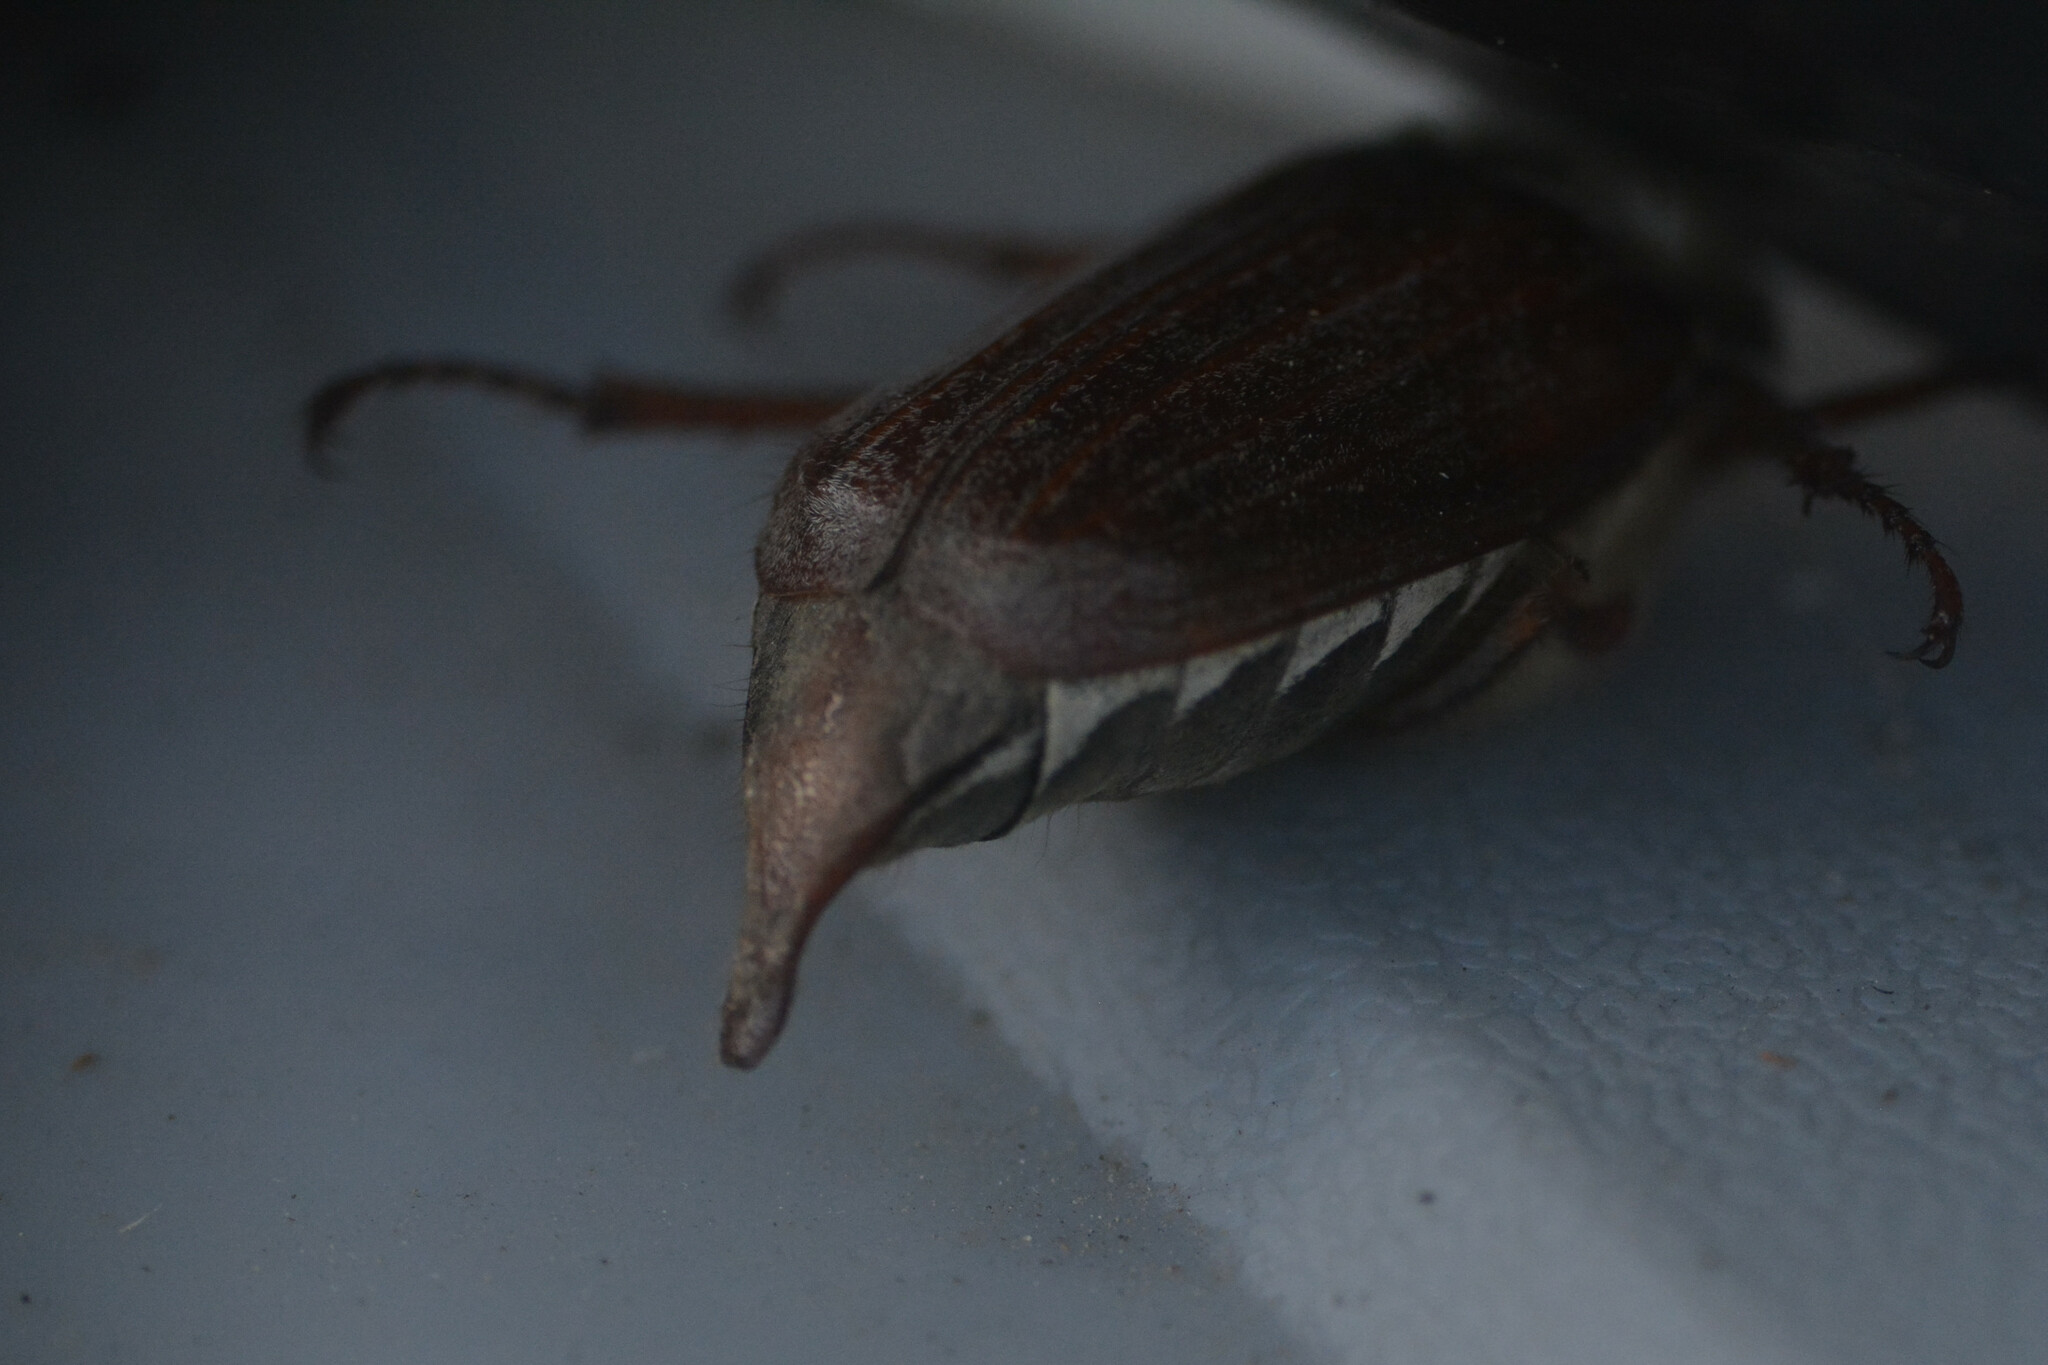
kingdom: Animalia
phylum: Arthropoda
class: Insecta
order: Coleoptera
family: Scarabaeidae
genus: Melolontha
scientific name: Melolontha melolontha
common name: Cockchafer maybeetle
